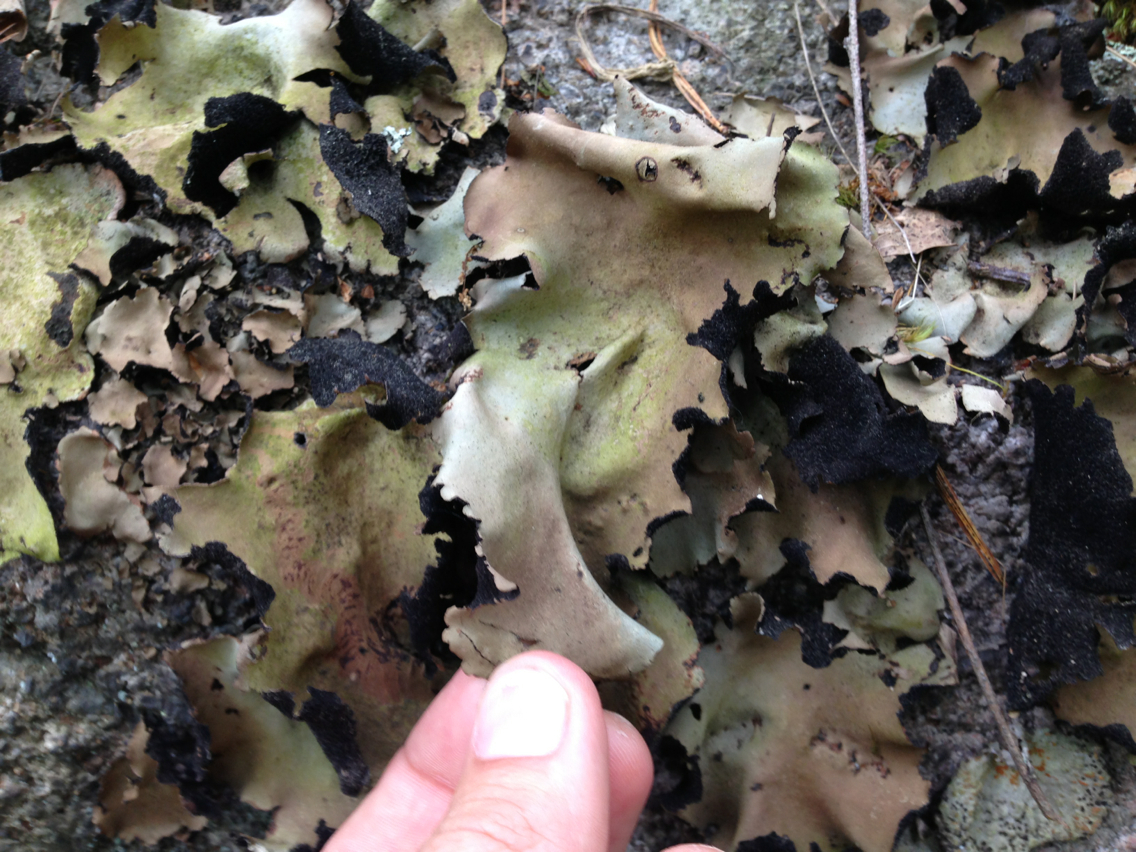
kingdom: Fungi
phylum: Ascomycota
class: Lecanoromycetes
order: Umbilicariales
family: Umbilicariaceae
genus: Umbilicaria
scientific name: Umbilicaria mammulata
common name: Smooth rock tripe
